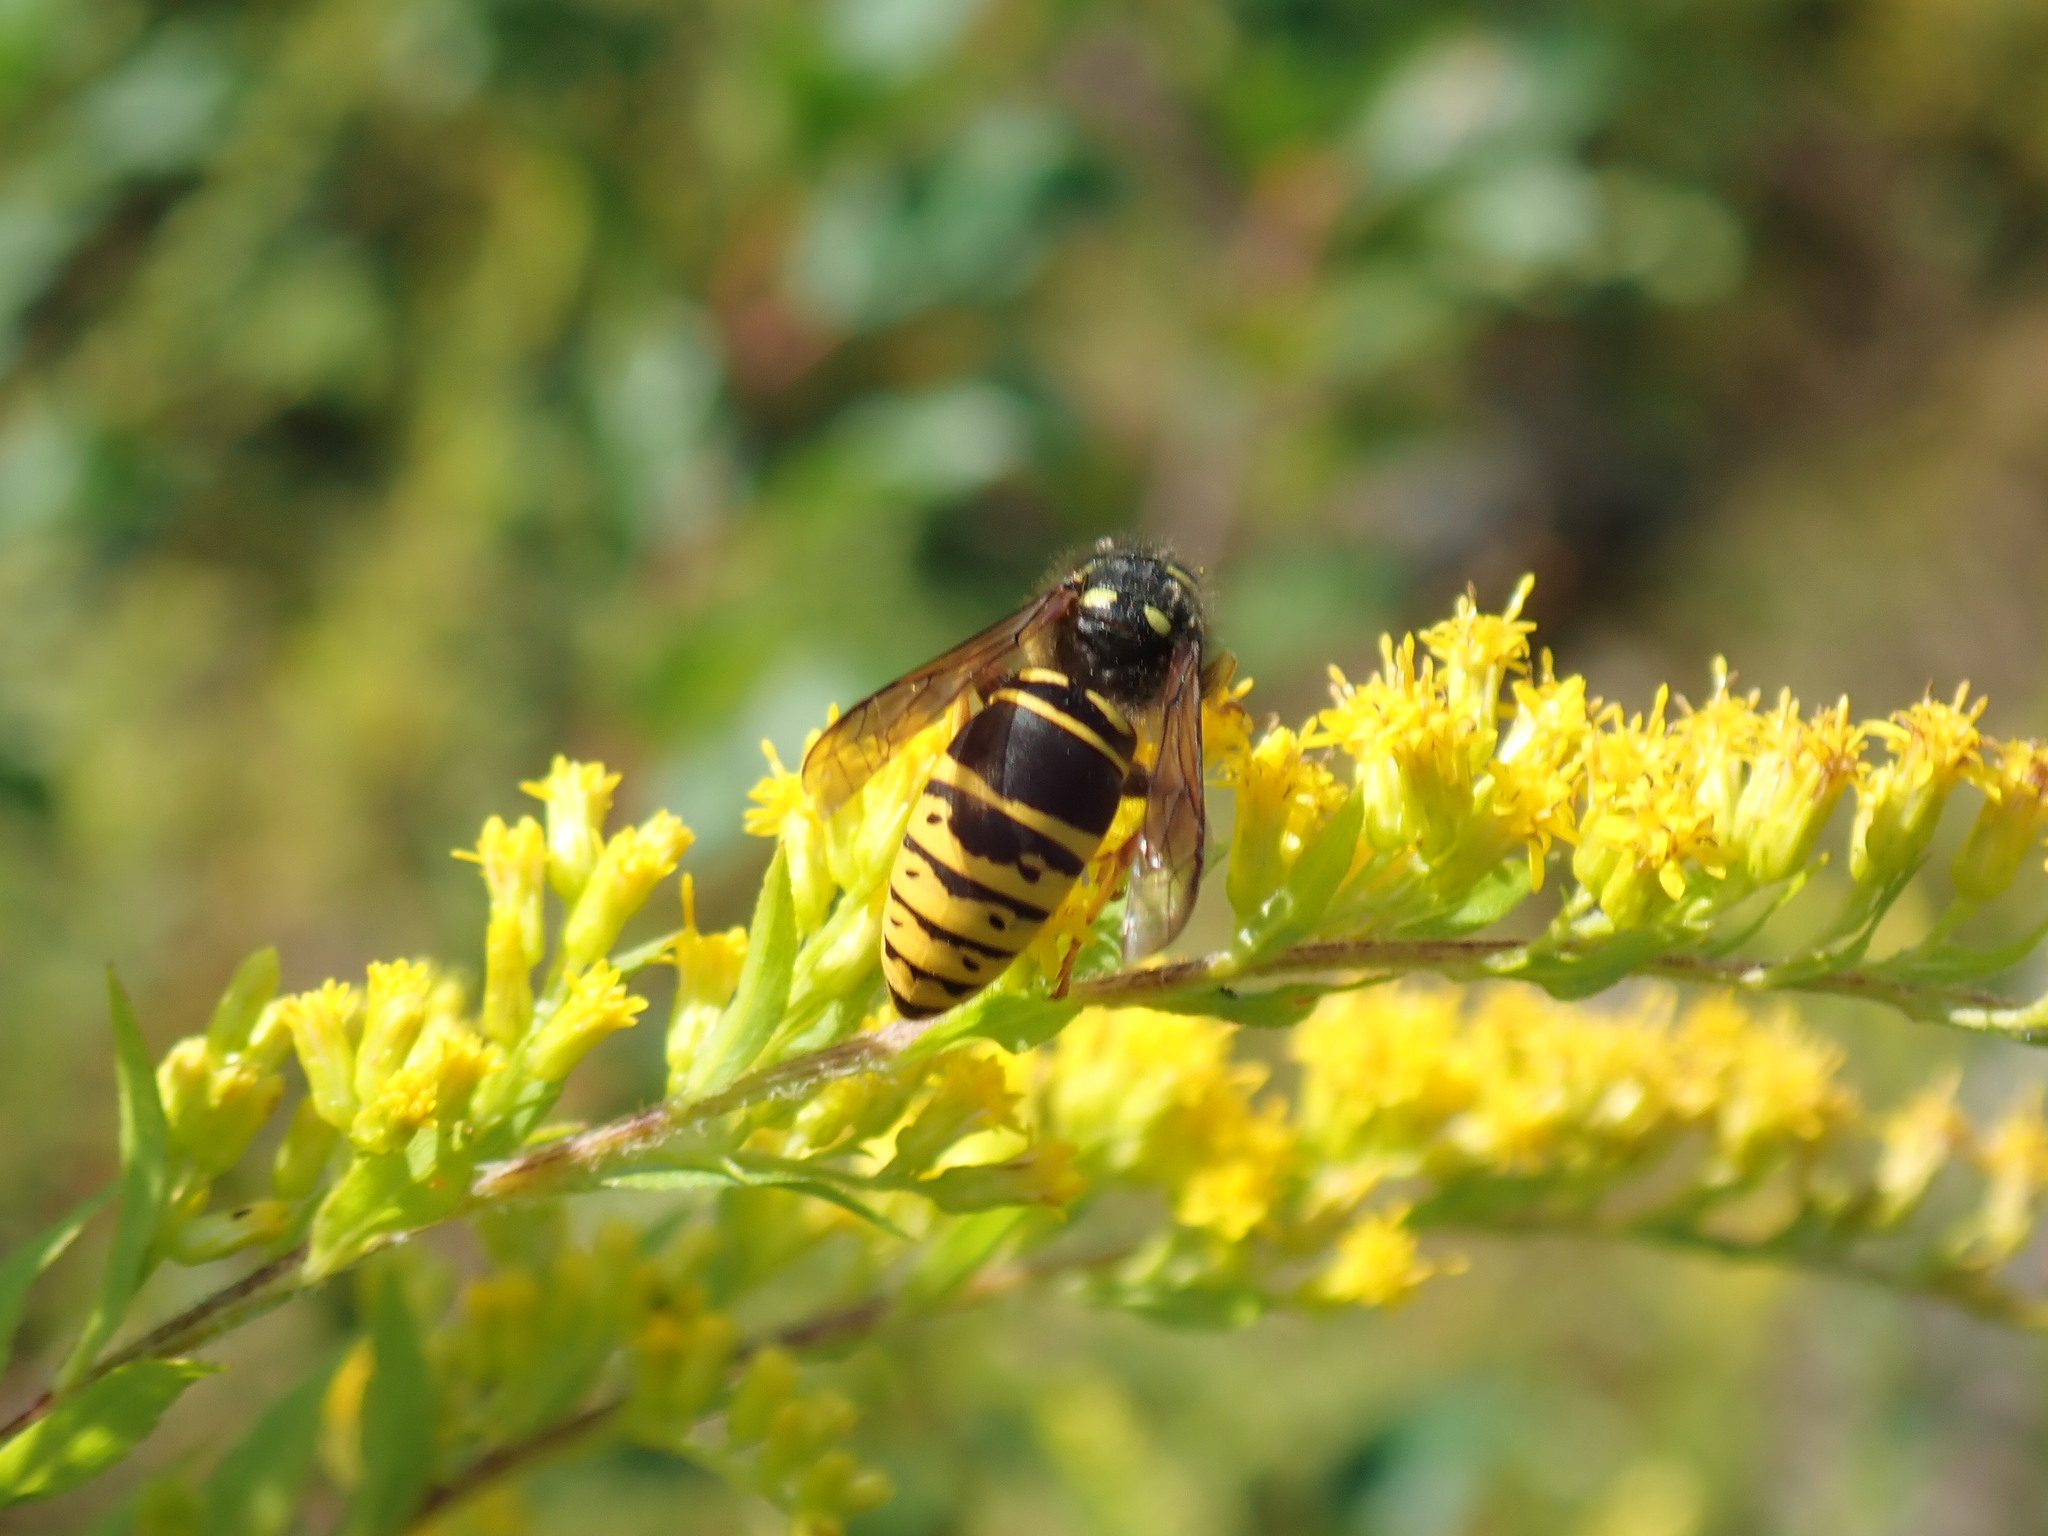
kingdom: Animalia
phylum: Arthropoda
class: Insecta
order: Hymenoptera
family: Vespidae
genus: Vespula
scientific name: Vespula vidua
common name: Widow yellowjacket
